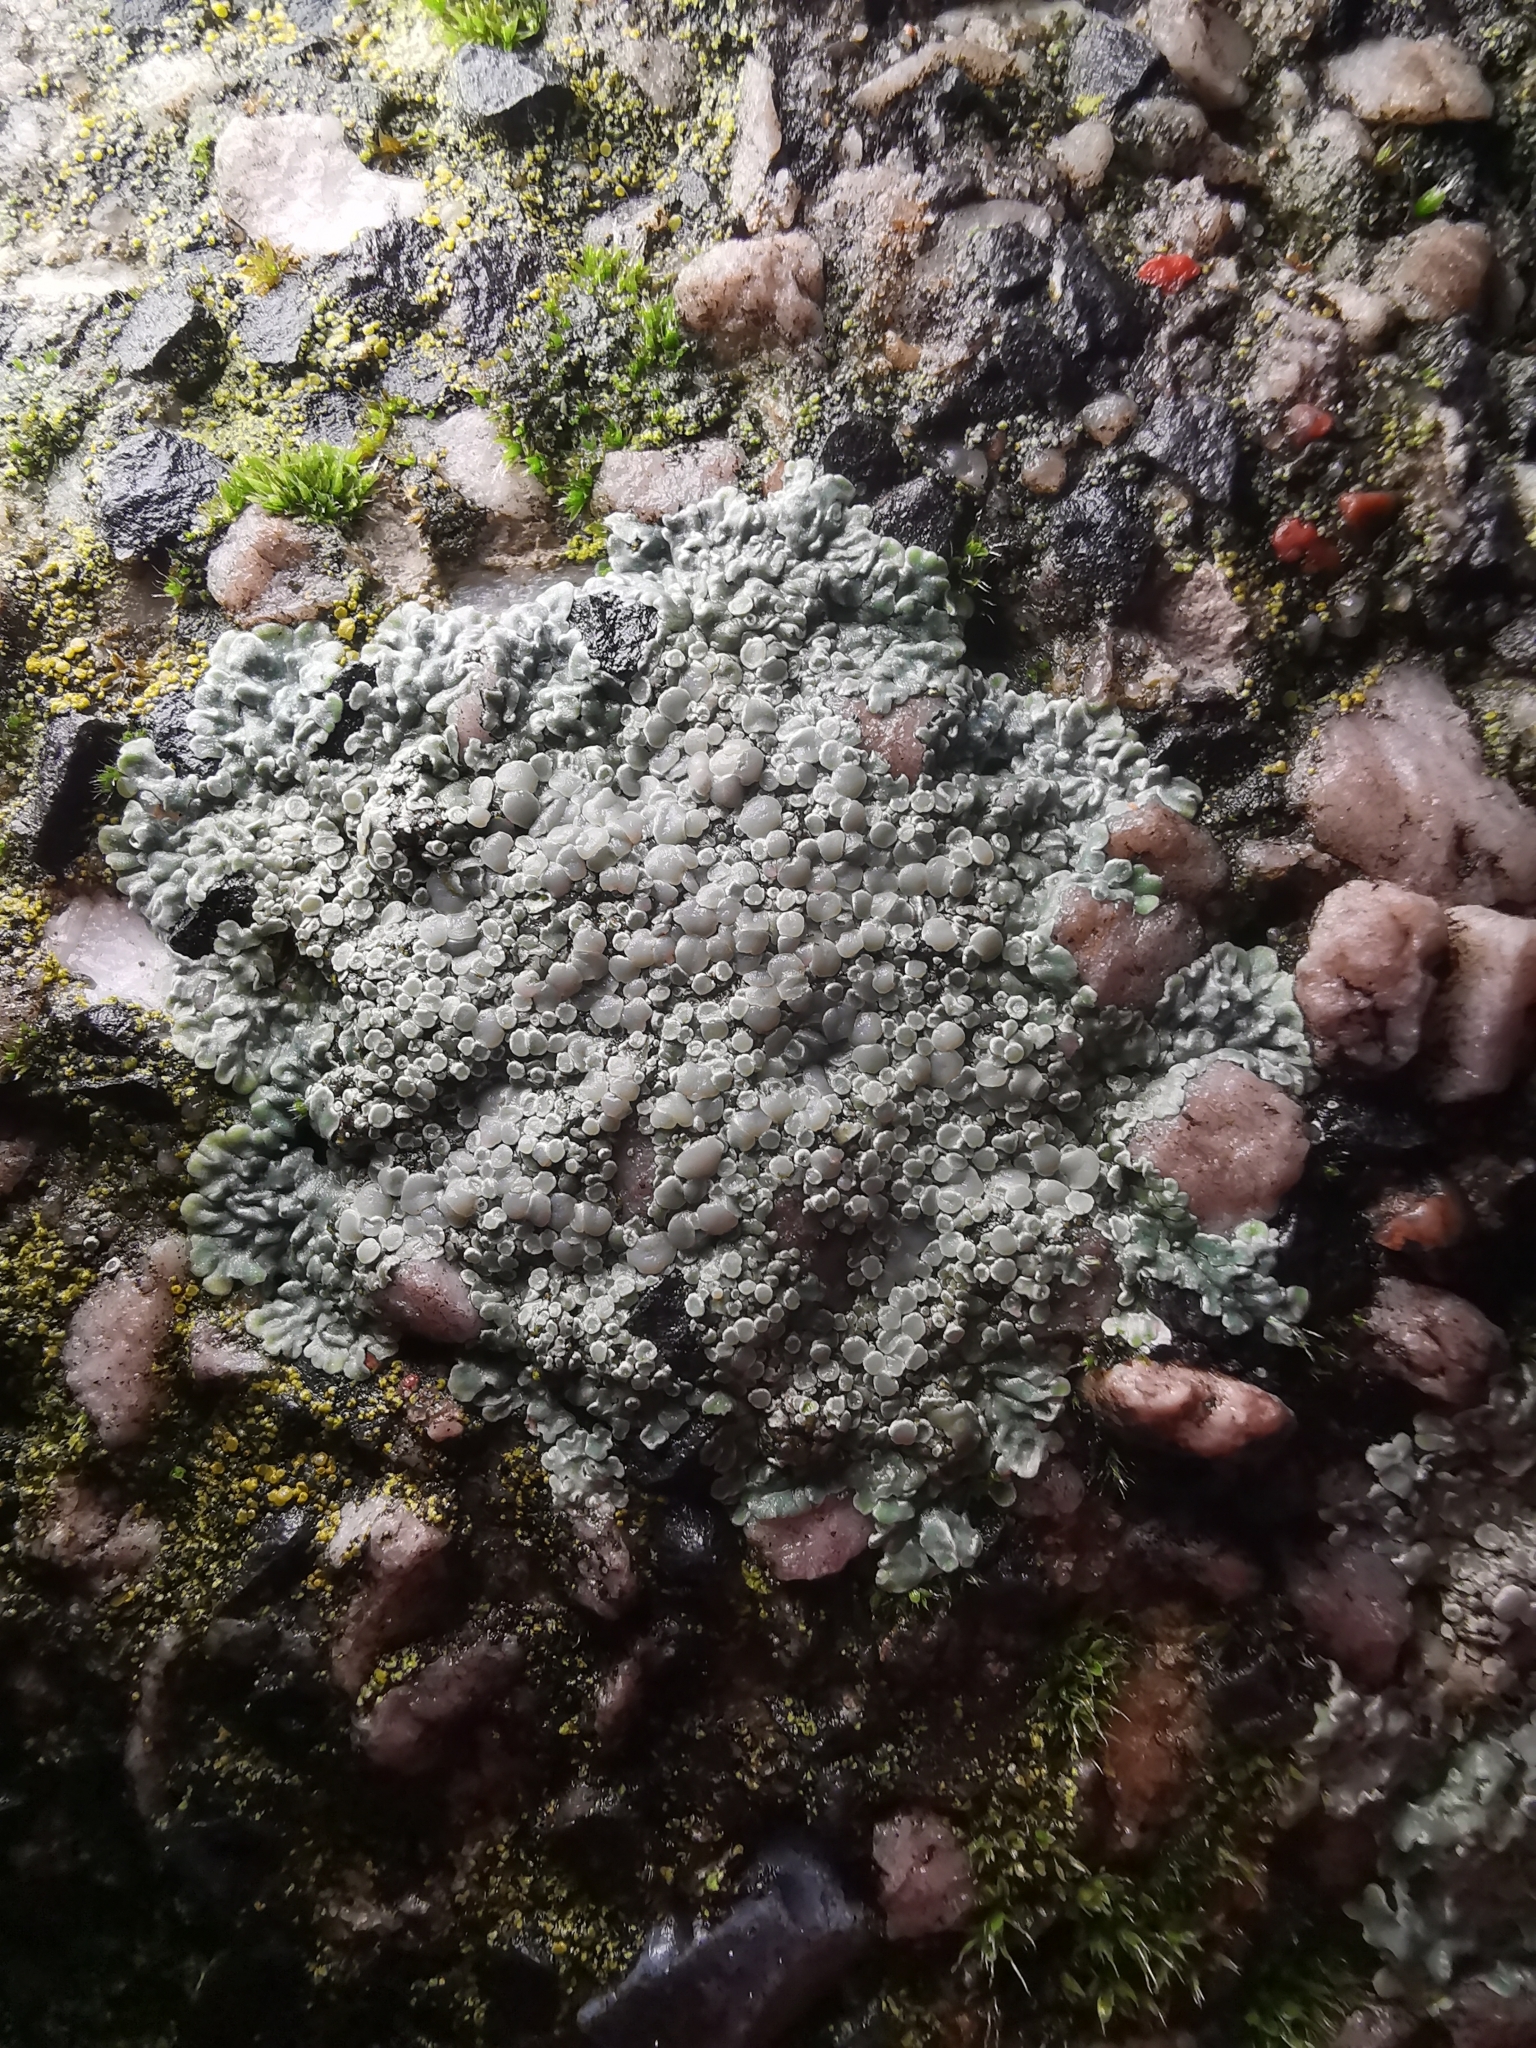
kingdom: Fungi
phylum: Ascomycota
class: Lecanoromycetes
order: Lecanorales
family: Lecanoraceae
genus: Protoparmeliopsis
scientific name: Protoparmeliopsis muralis
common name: Stonewall rim lichen
